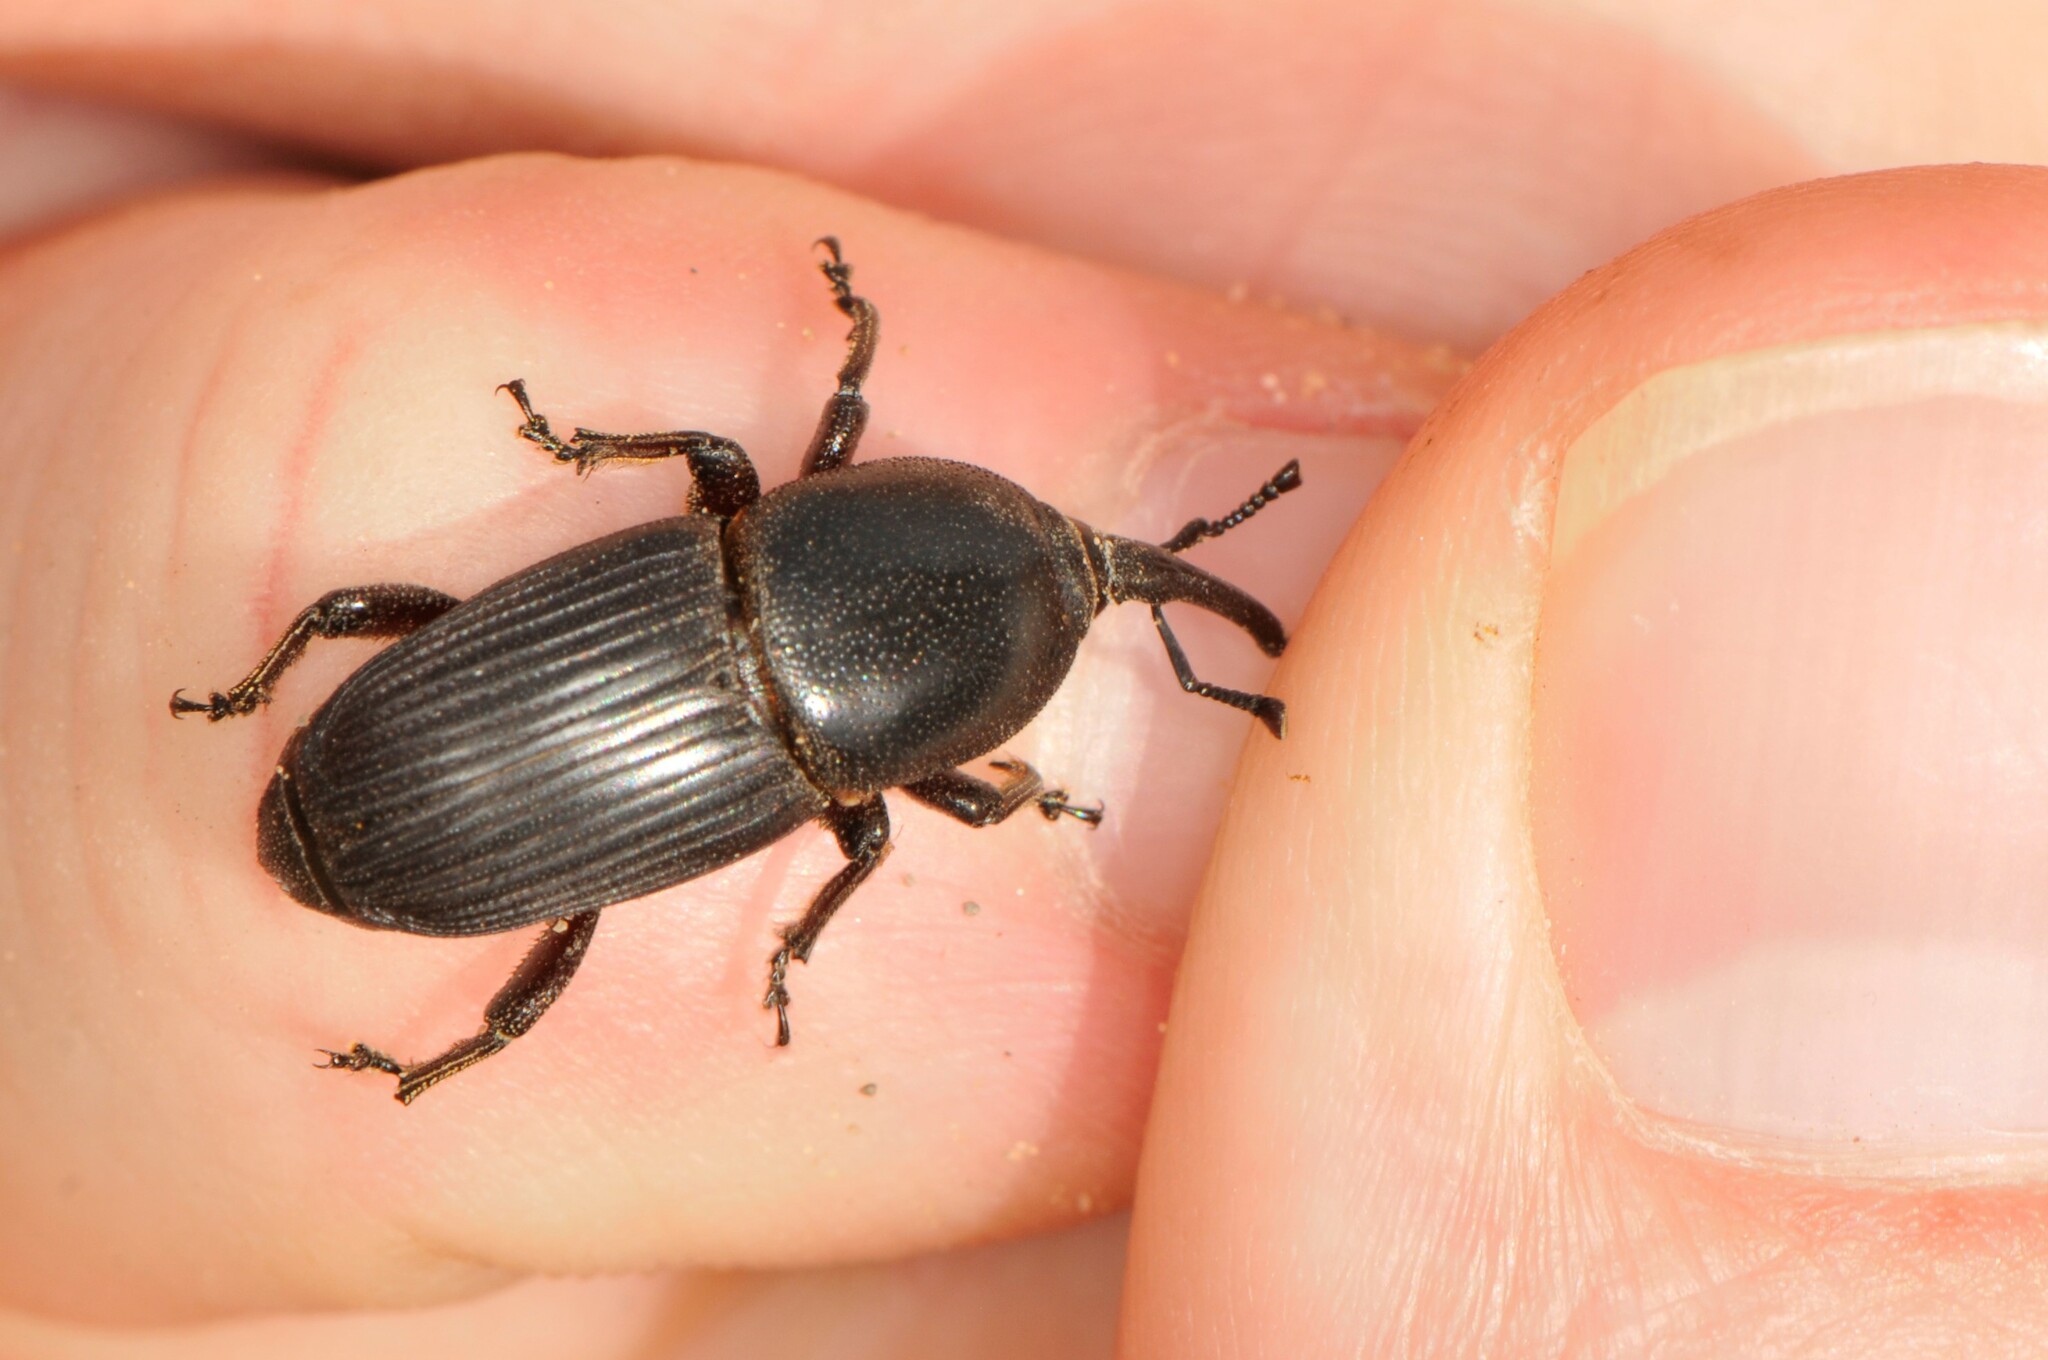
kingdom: Animalia
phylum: Arthropoda
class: Insecta
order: Coleoptera
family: Dryophthoridae
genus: Scyphophorus
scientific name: Scyphophorus acupunctatus
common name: Weevil
